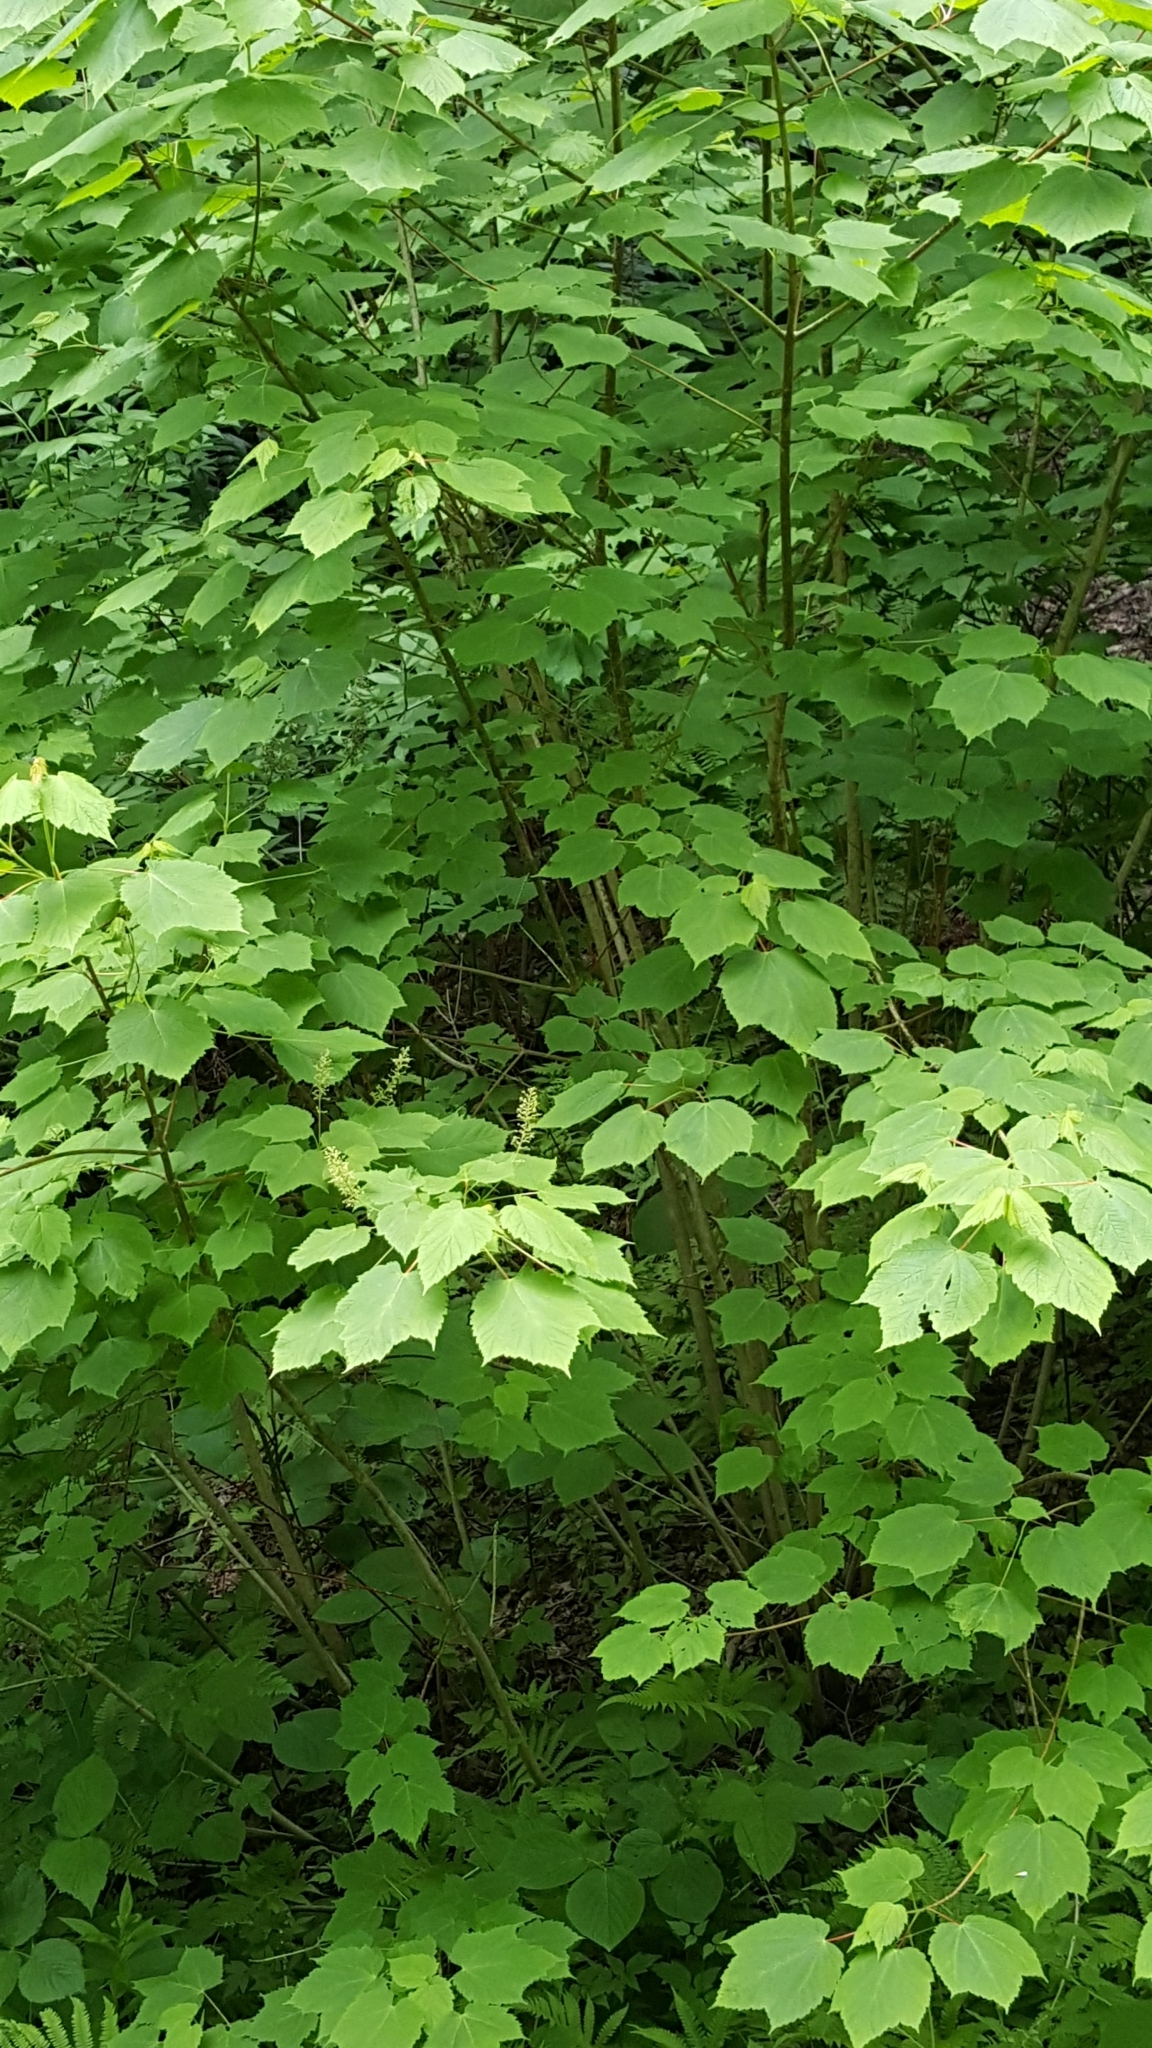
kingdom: Plantae
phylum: Tracheophyta
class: Magnoliopsida
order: Sapindales
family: Sapindaceae
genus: Acer
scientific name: Acer spicatum
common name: Mountain maple
